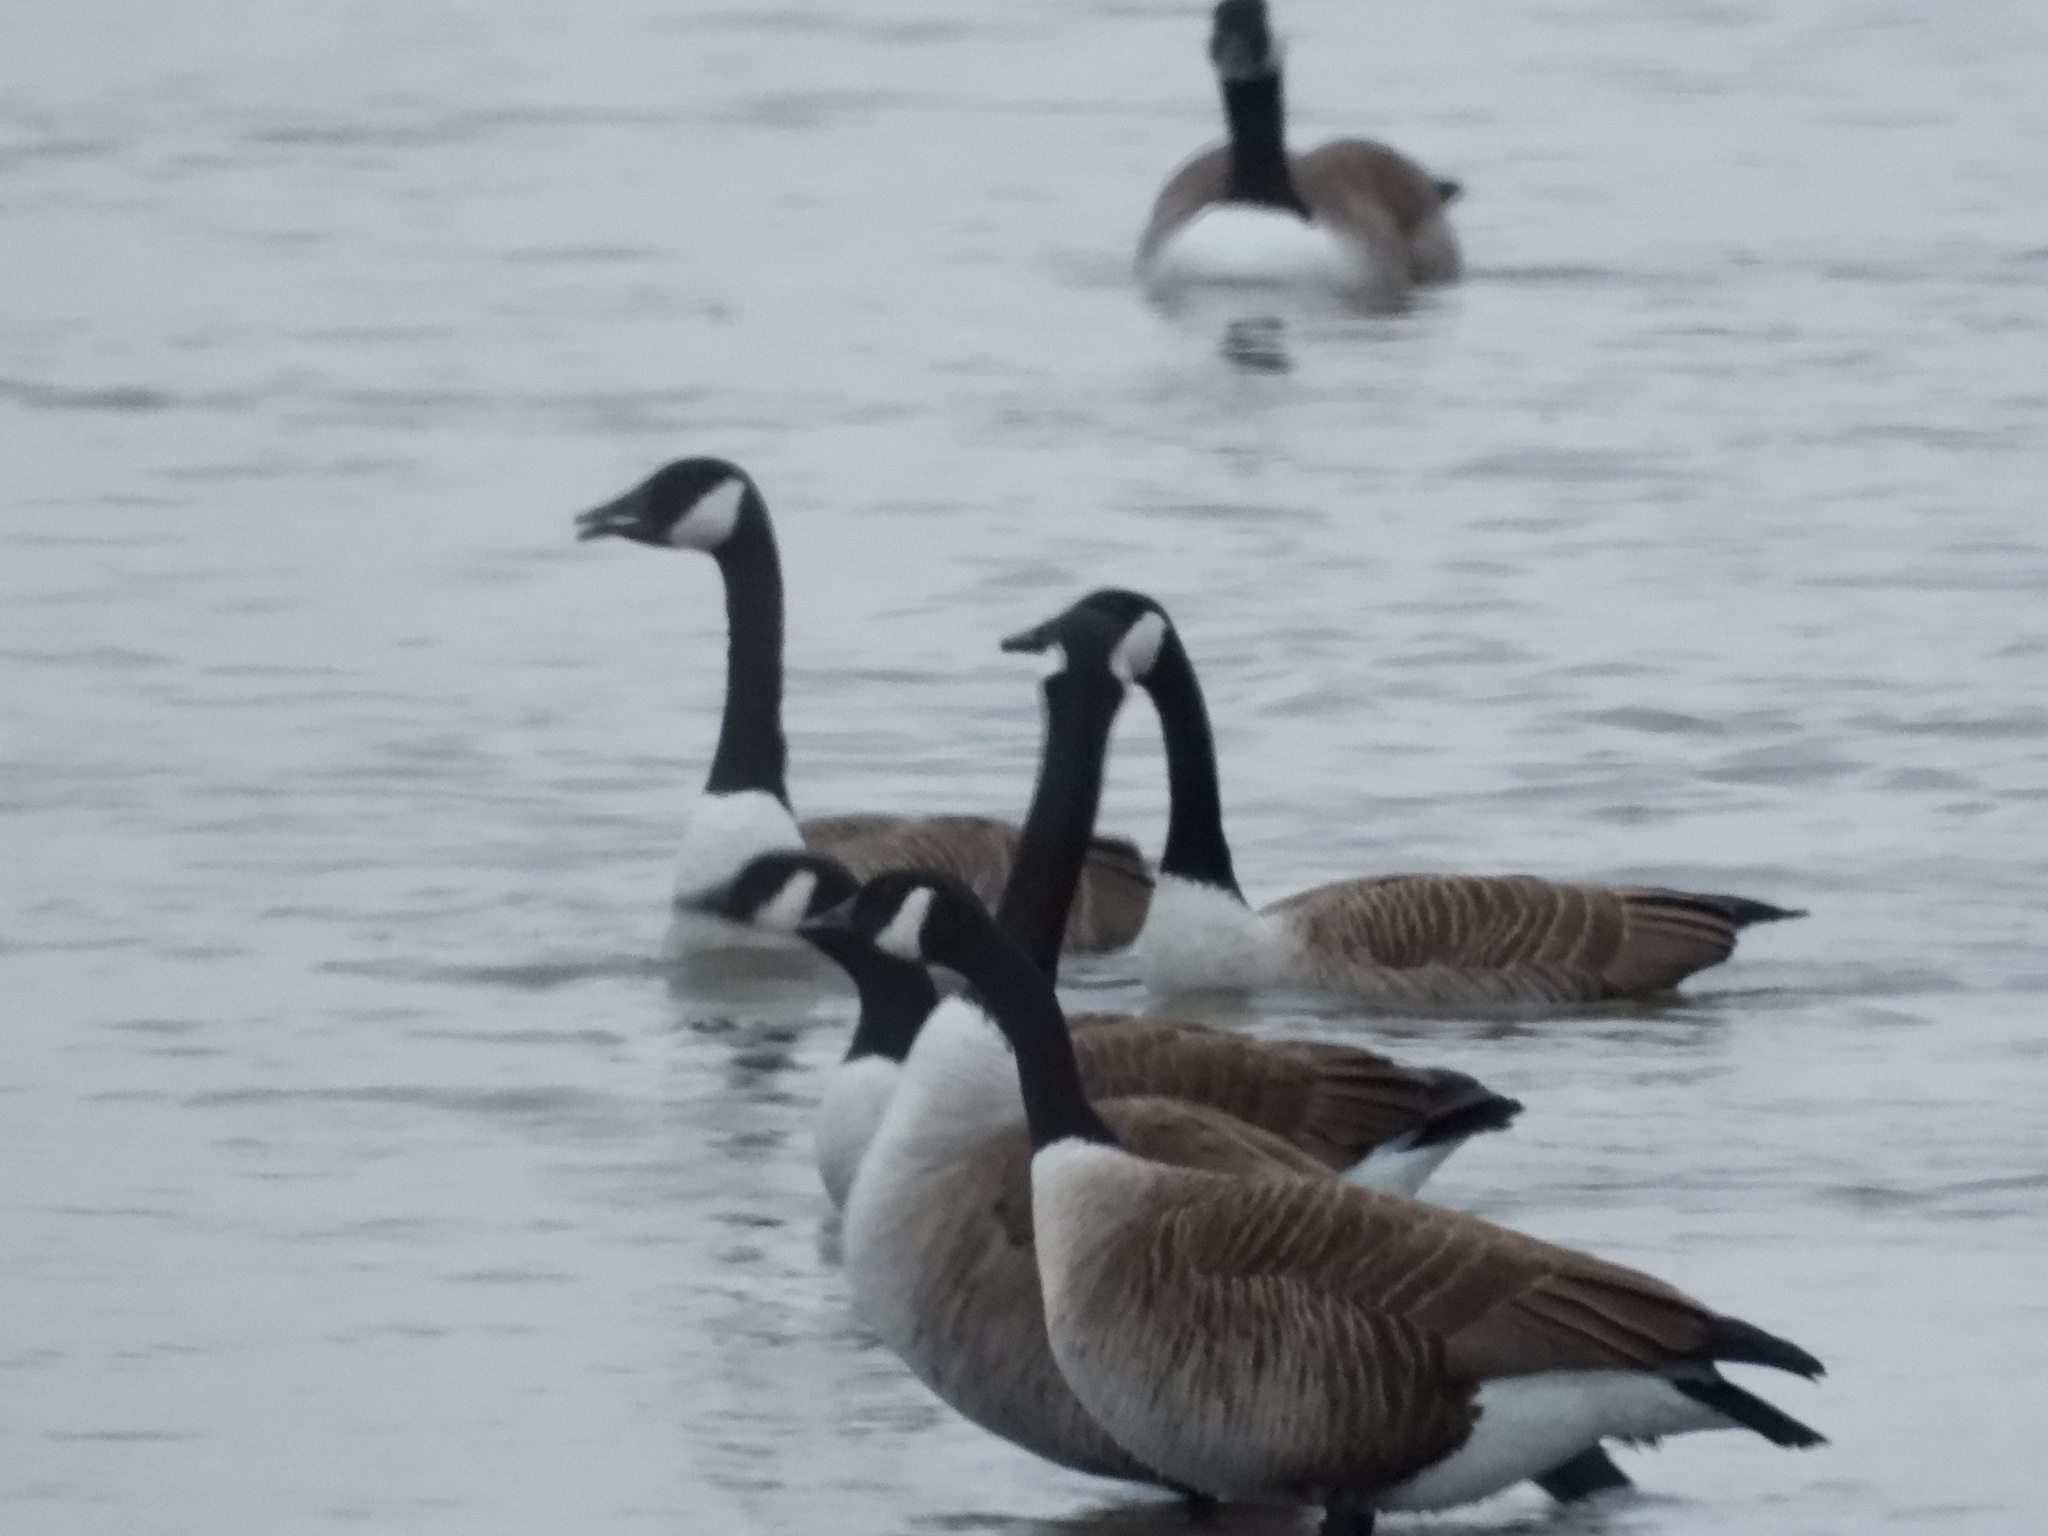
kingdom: Animalia
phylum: Chordata
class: Aves
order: Anseriformes
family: Anatidae
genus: Branta
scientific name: Branta canadensis
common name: Canada goose
